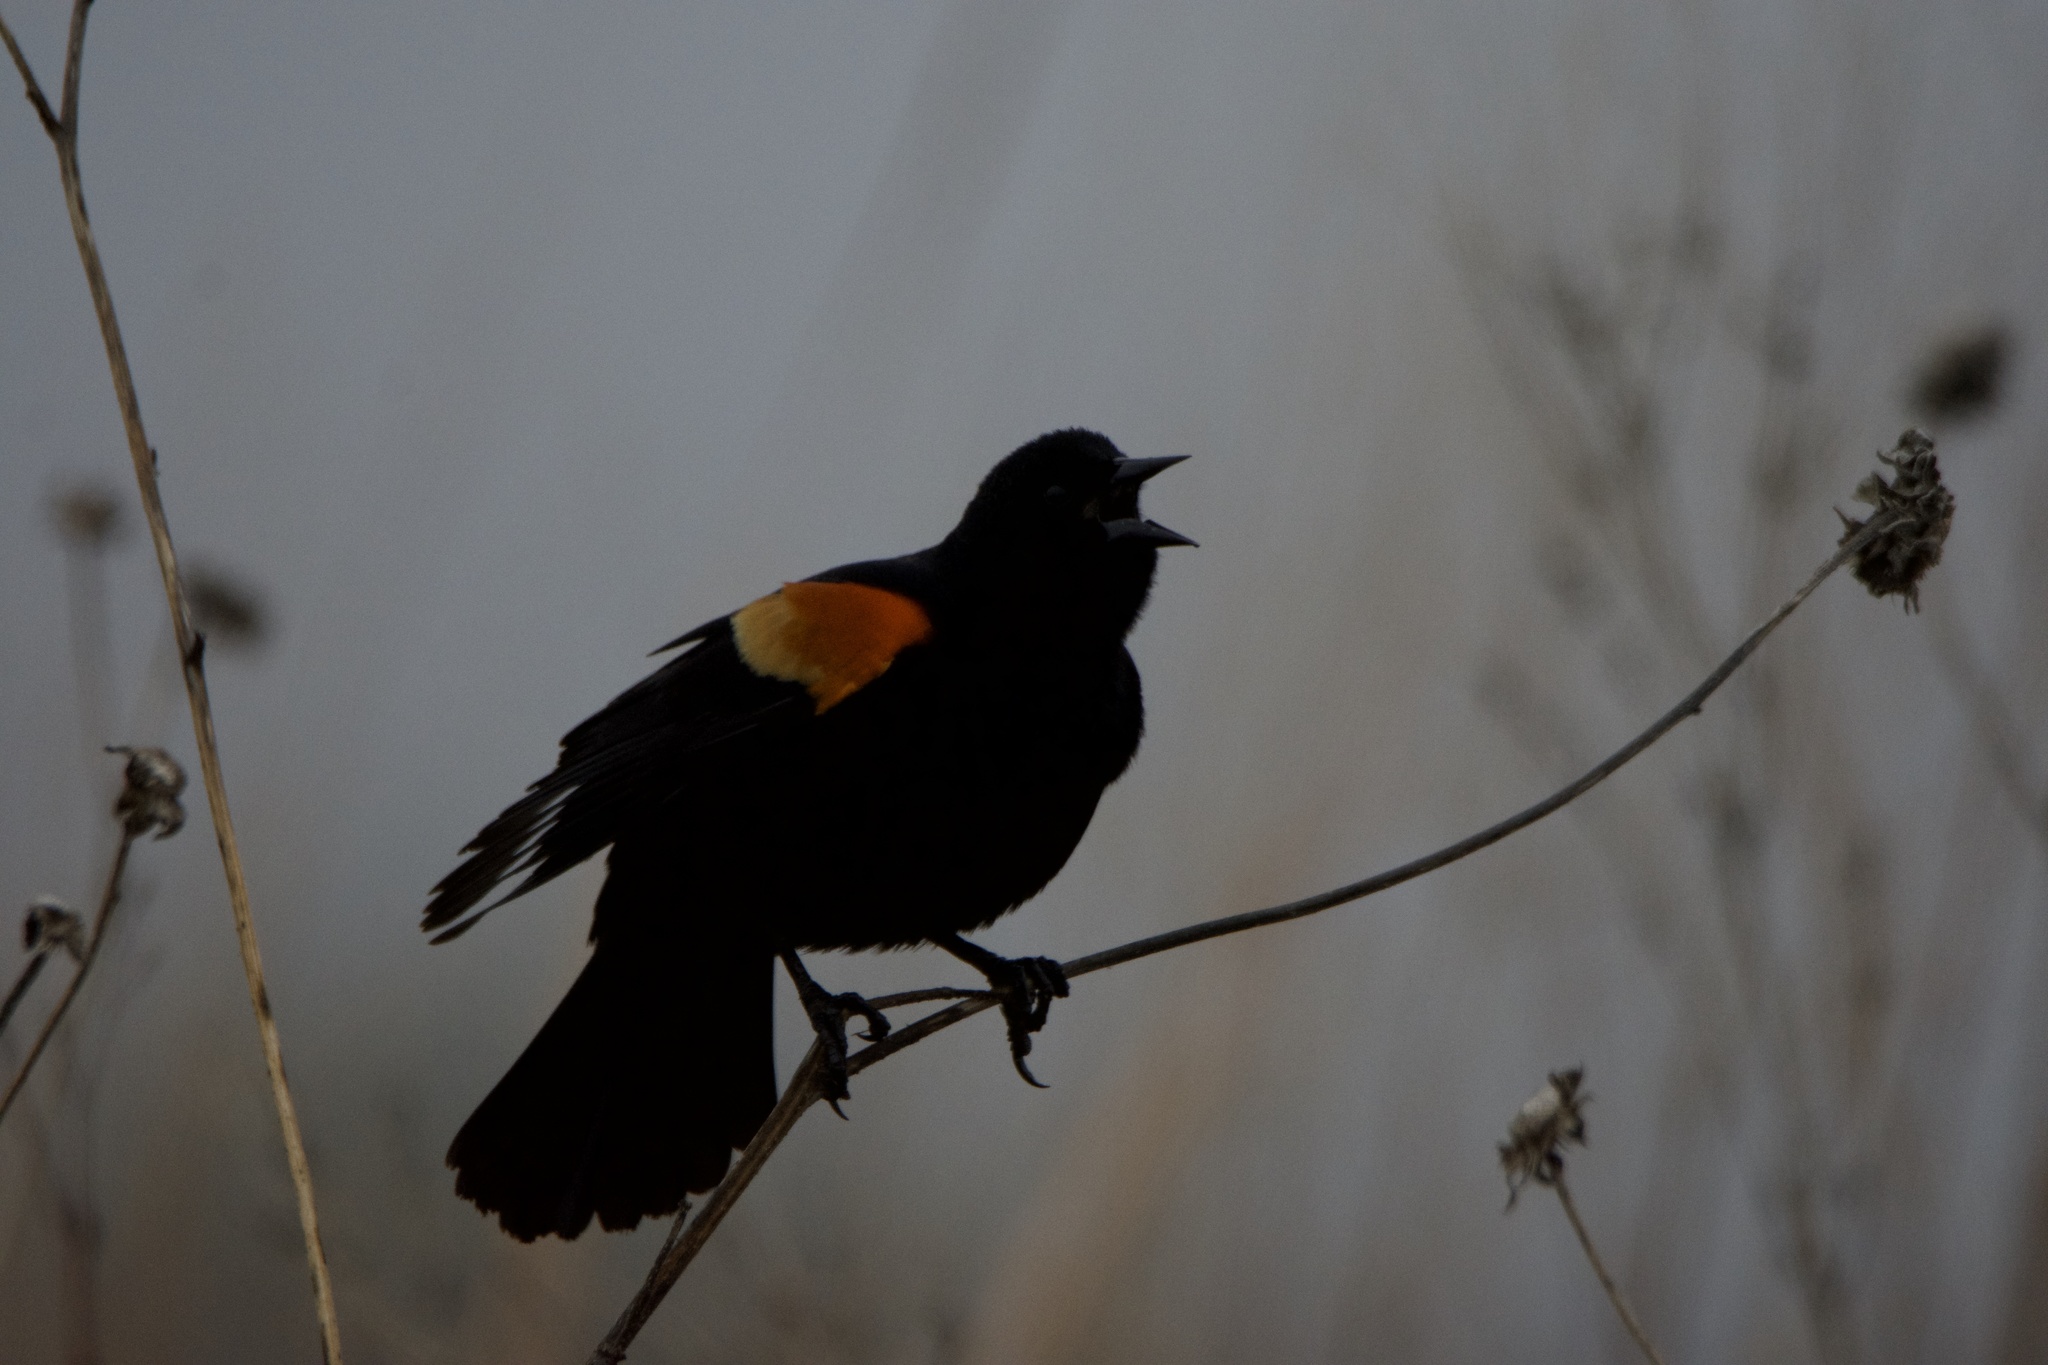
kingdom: Animalia
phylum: Chordata
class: Aves
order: Passeriformes
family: Icteridae
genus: Agelaius
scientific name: Agelaius phoeniceus
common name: Red-winged blackbird
